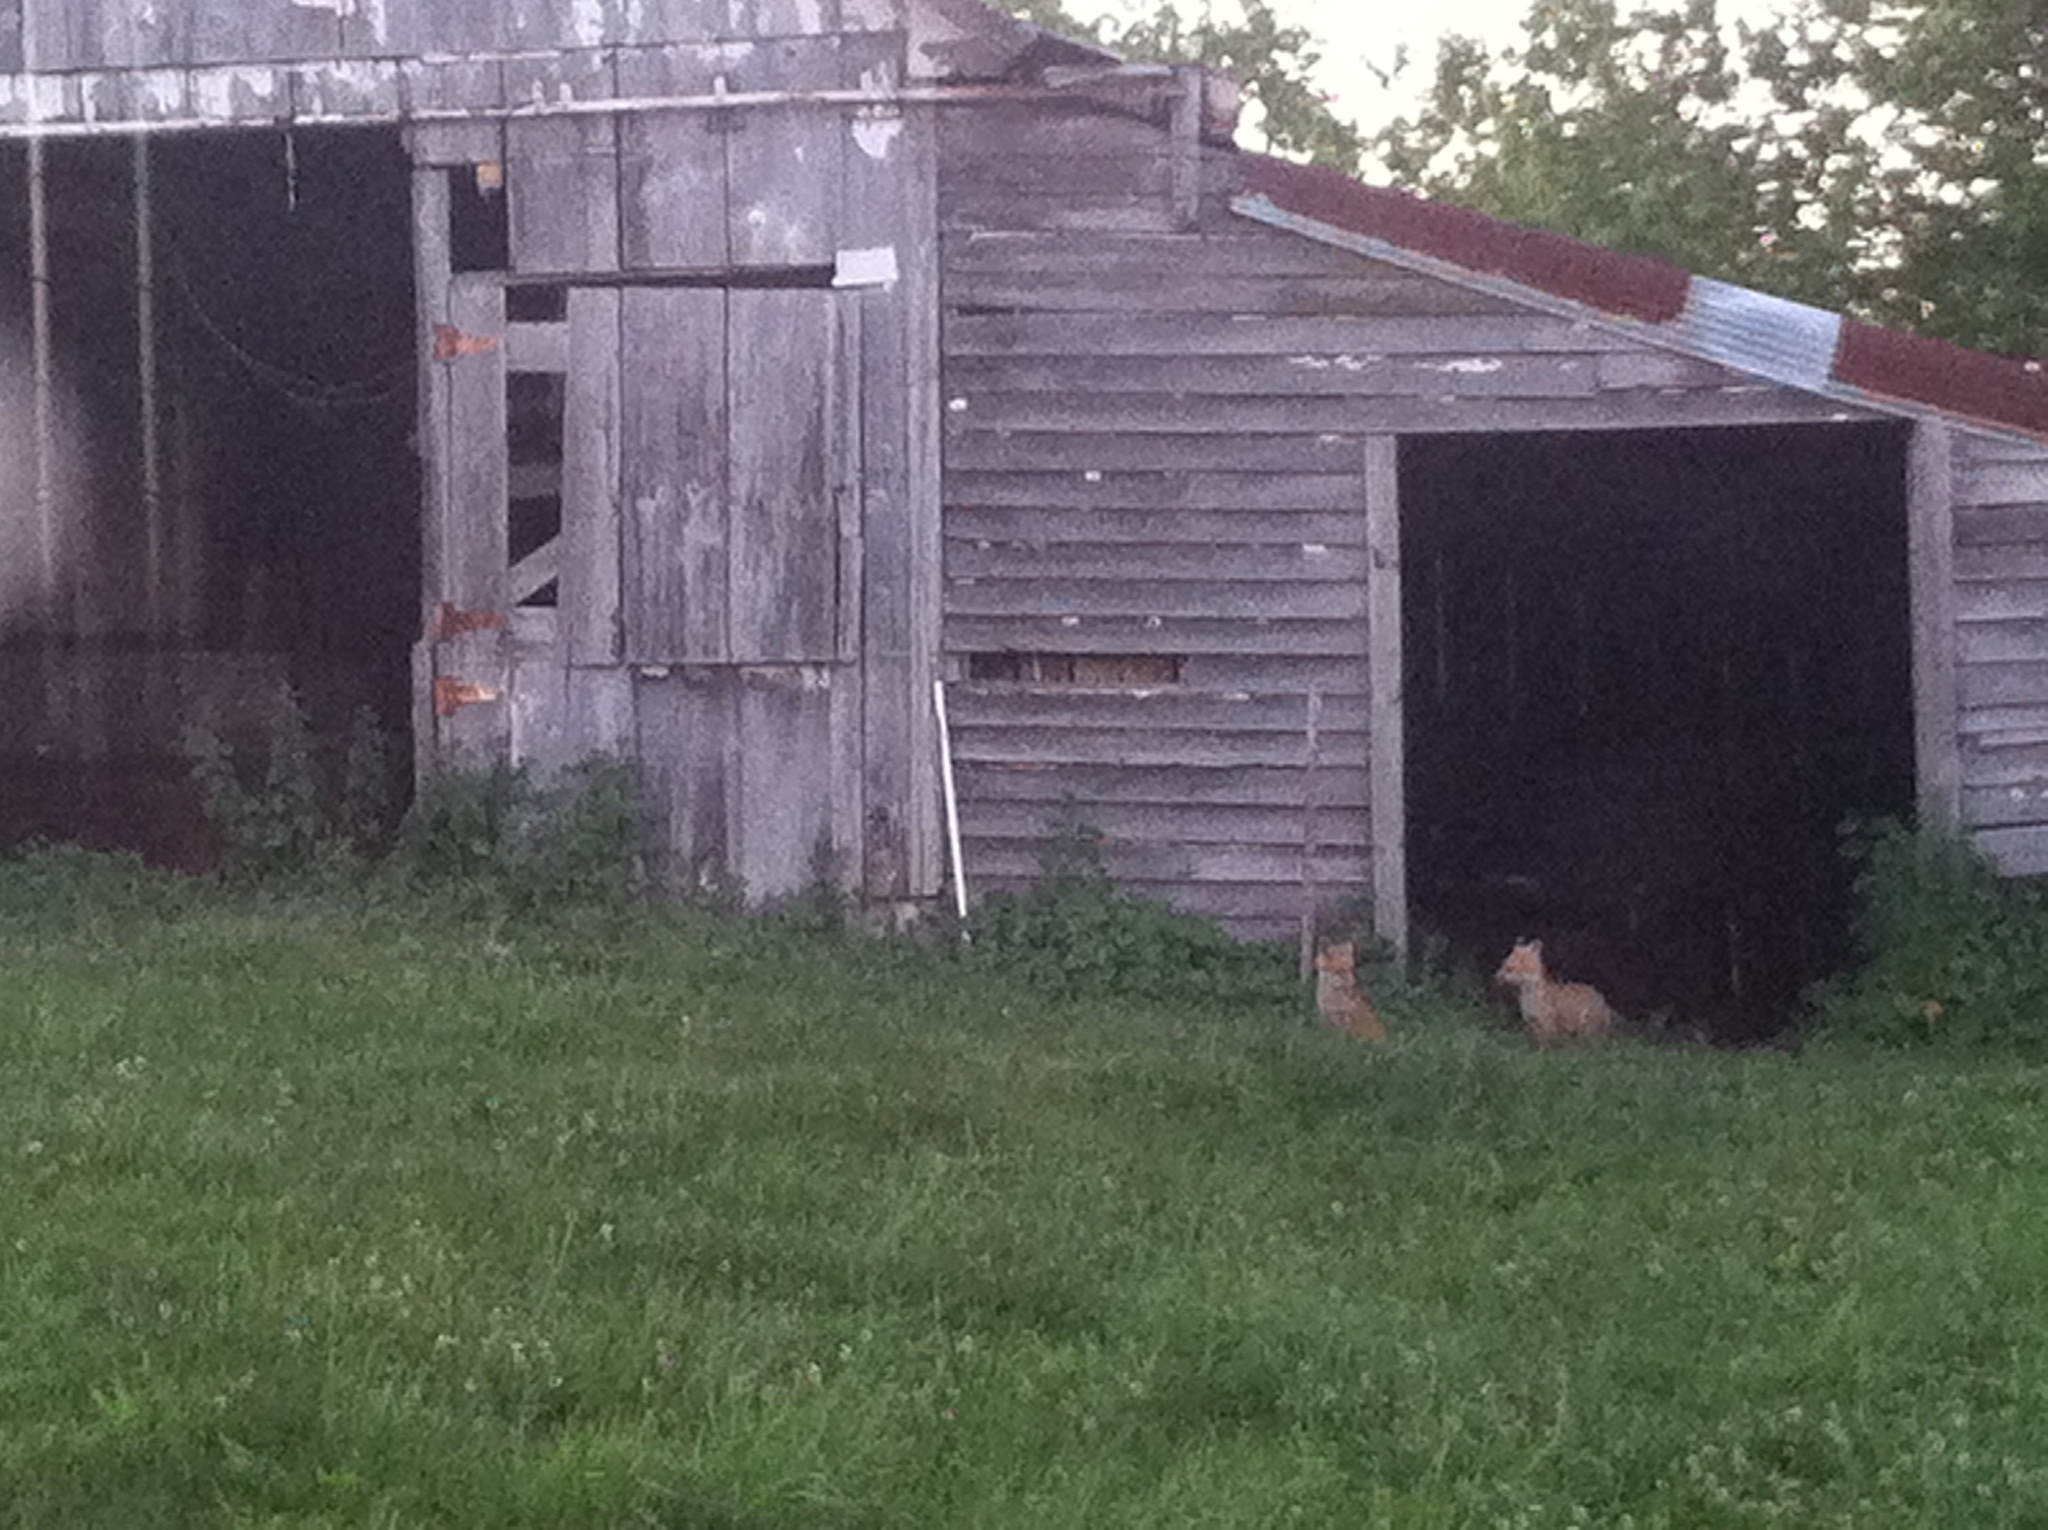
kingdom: Animalia
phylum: Chordata
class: Mammalia
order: Carnivora
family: Canidae
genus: Vulpes
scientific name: Vulpes vulpes
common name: Red fox
